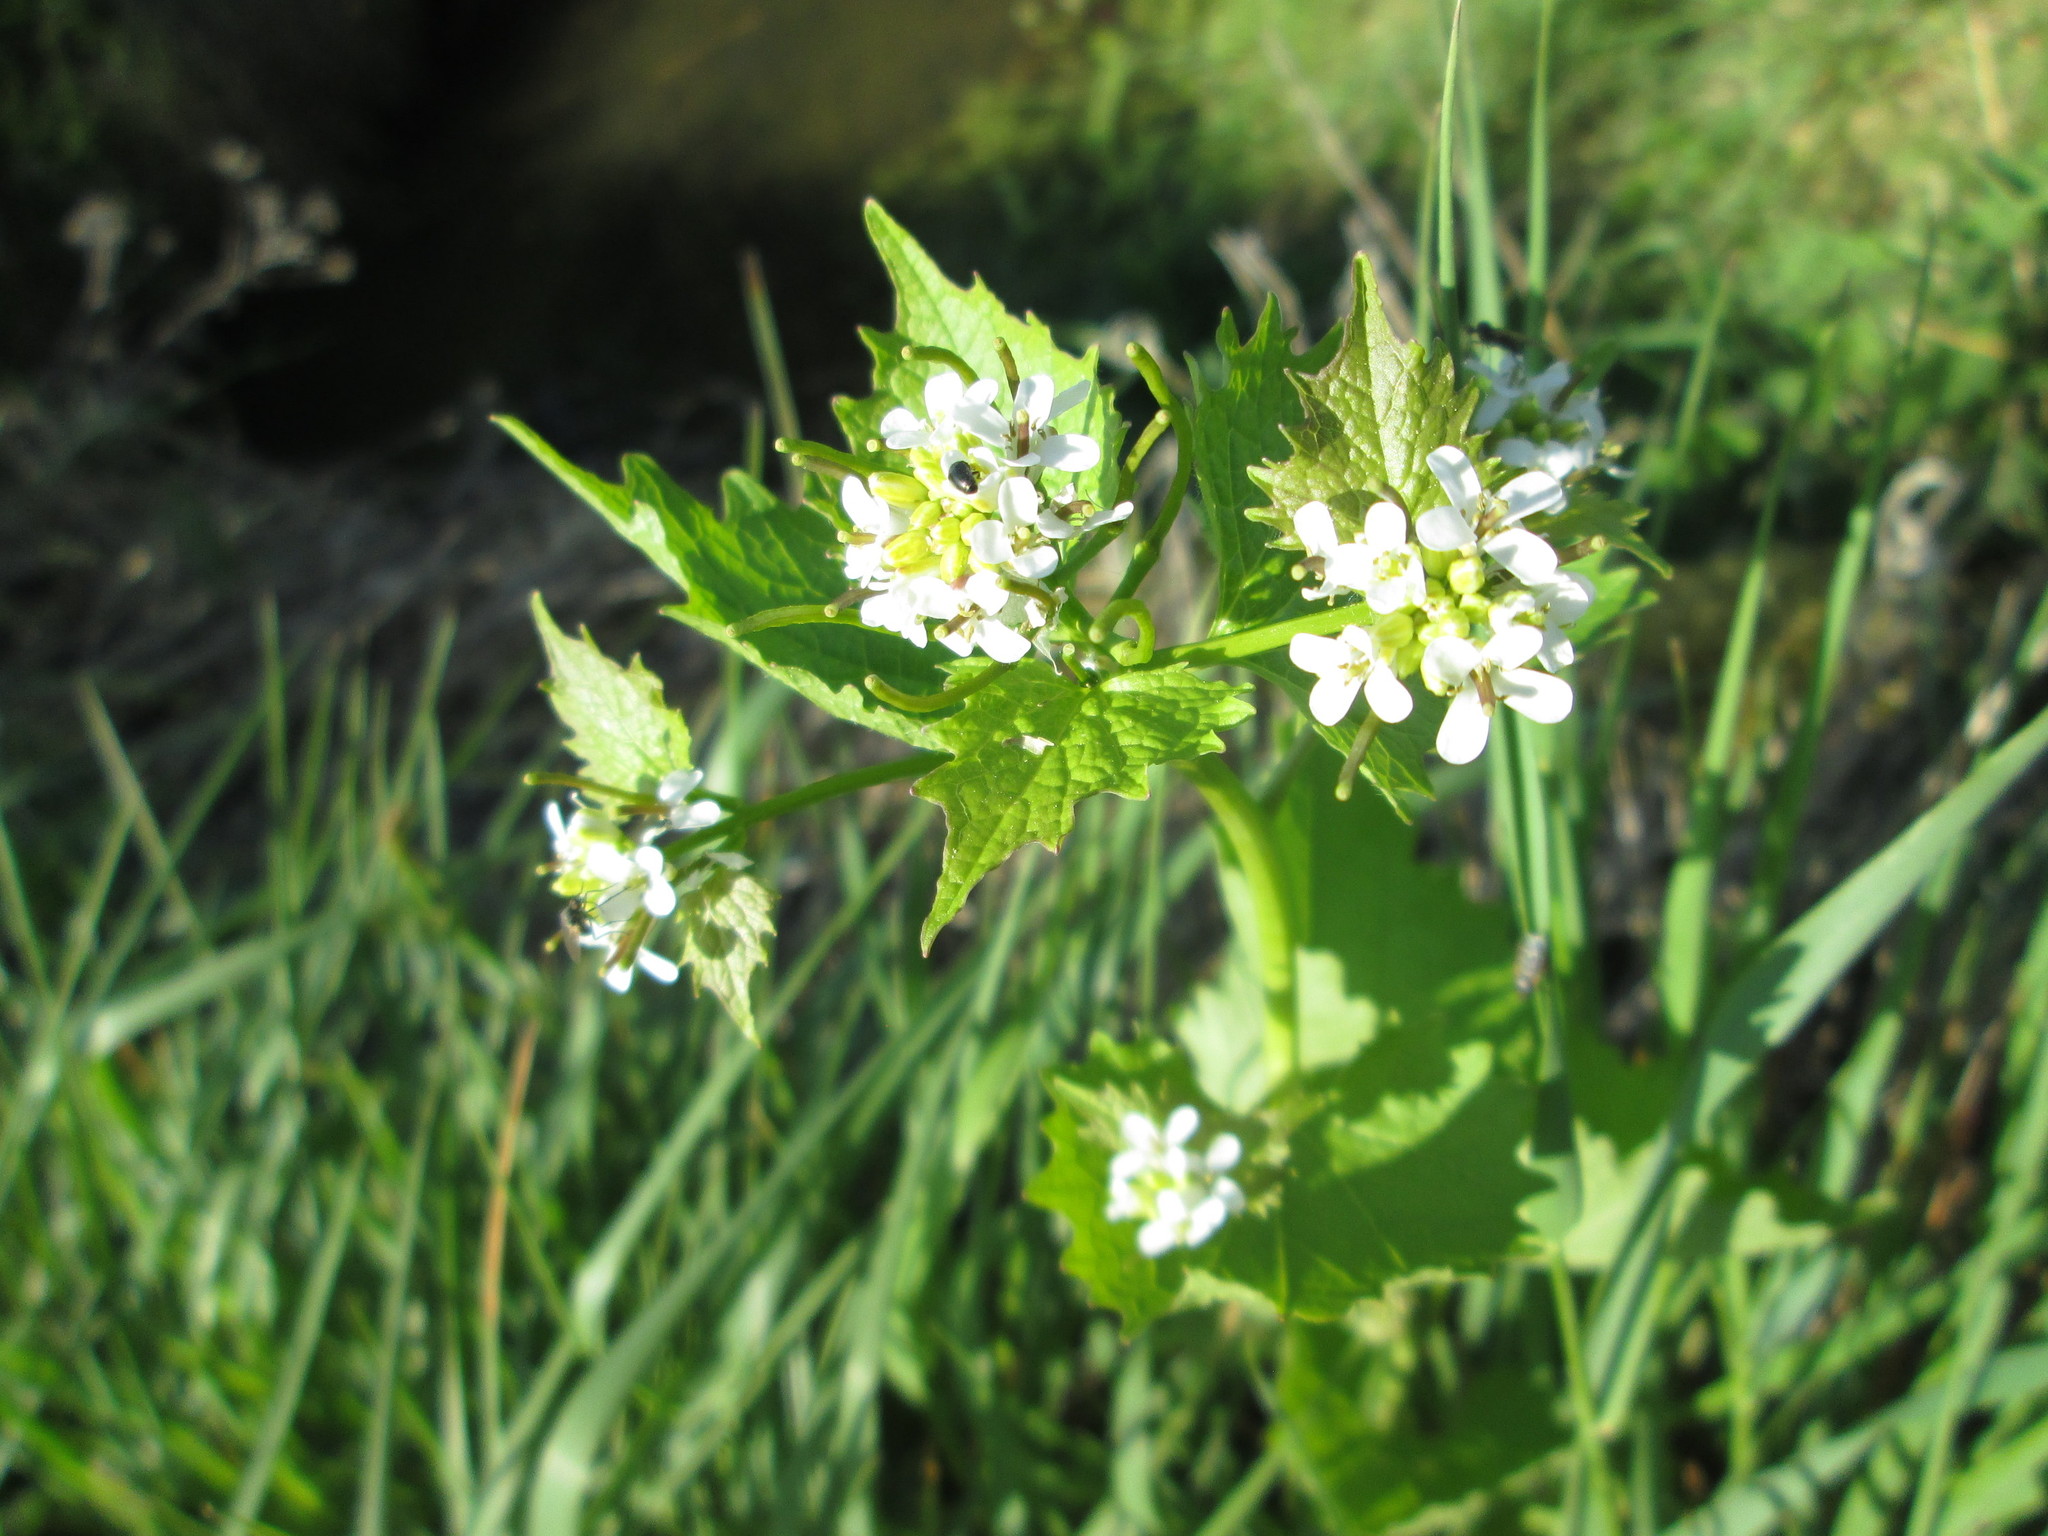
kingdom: Plantae
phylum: Tracheophyta
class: Magnoliopsida
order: Brassicales
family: Brassicaceae
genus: Alliaria
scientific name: Alliaria petiolata
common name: Garlic mustard
